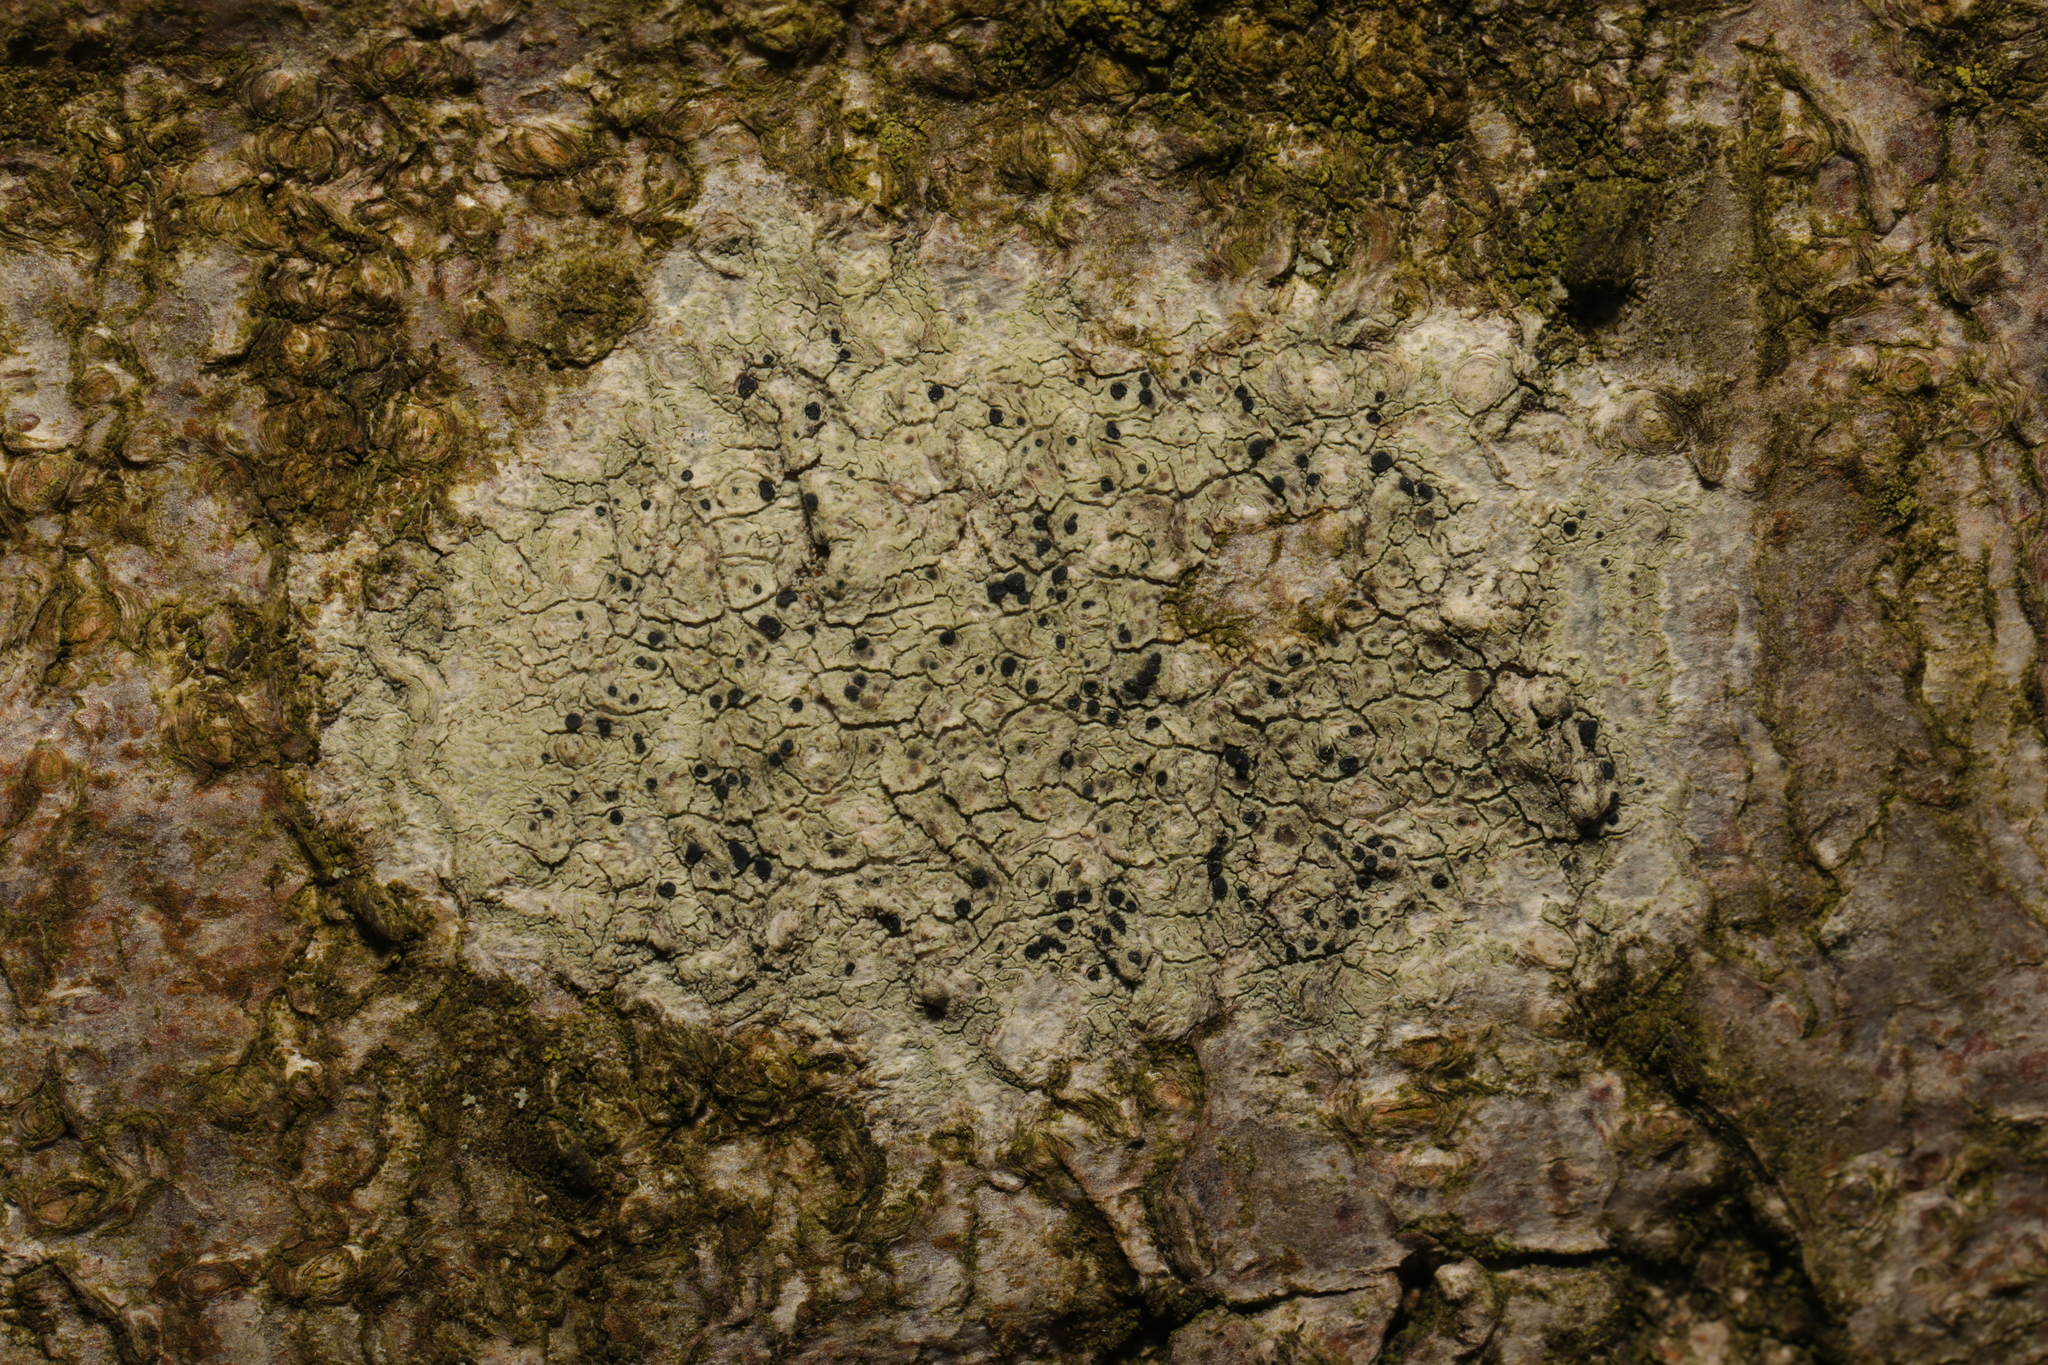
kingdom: Fungi
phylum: Ascomycota
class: Lecanoromycetes
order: Lecanorales
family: Lecanoraceae
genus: Lecidella
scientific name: Lecidella elaeochroma
